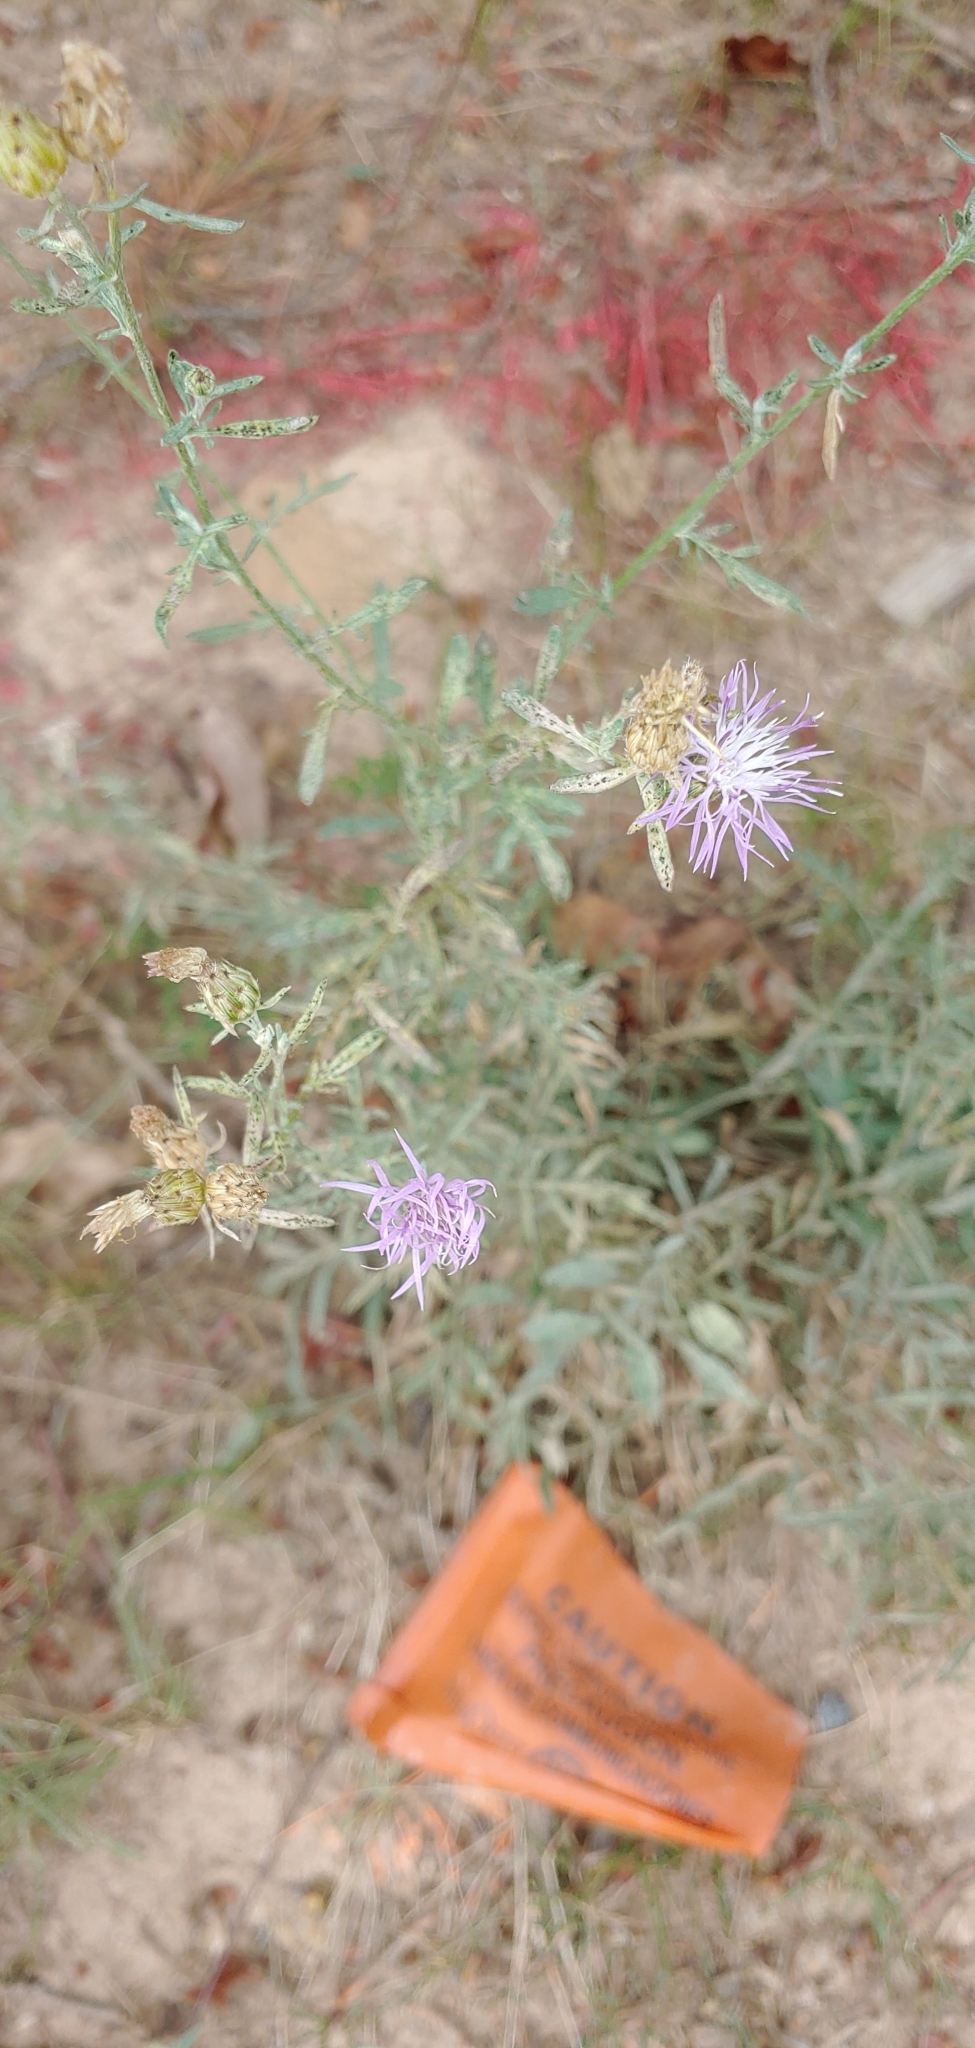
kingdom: Plantae
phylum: Tracheophyta
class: Magnoliopsida
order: Asterales
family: Asteraceae
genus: Centaurea
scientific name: Centaurea stoebe
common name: Spotted knapweed
